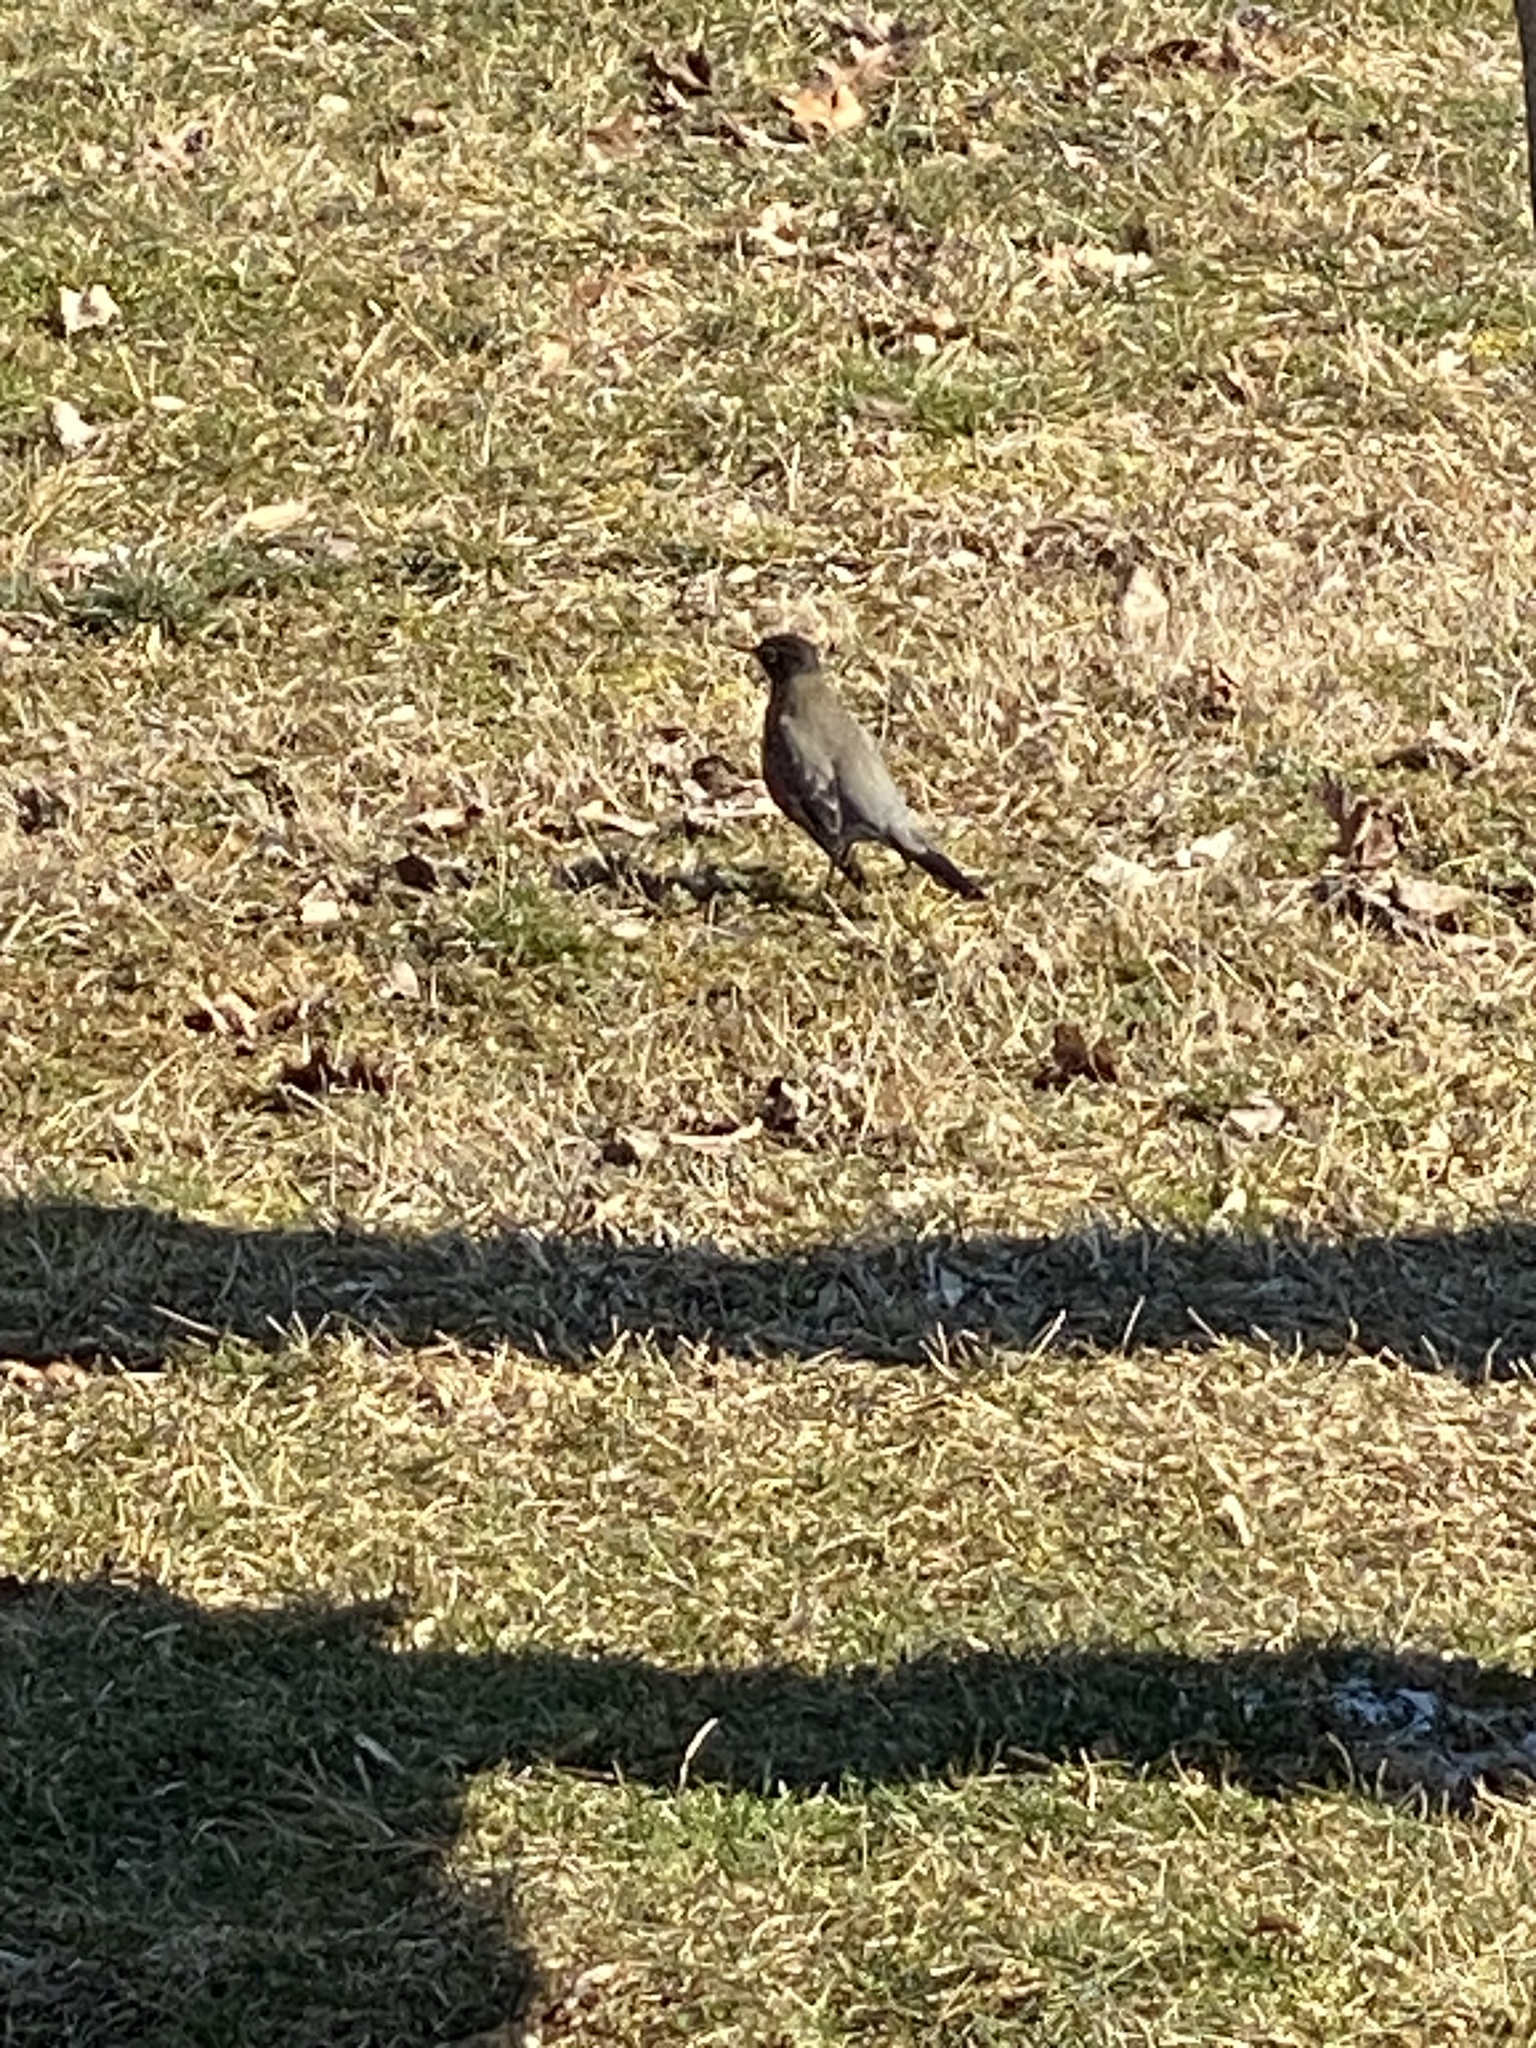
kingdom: Animalia
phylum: Chordata
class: Aves
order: Passeriformes
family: Turdidae
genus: Turdus
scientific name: Turdus migratorius
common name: American robin
